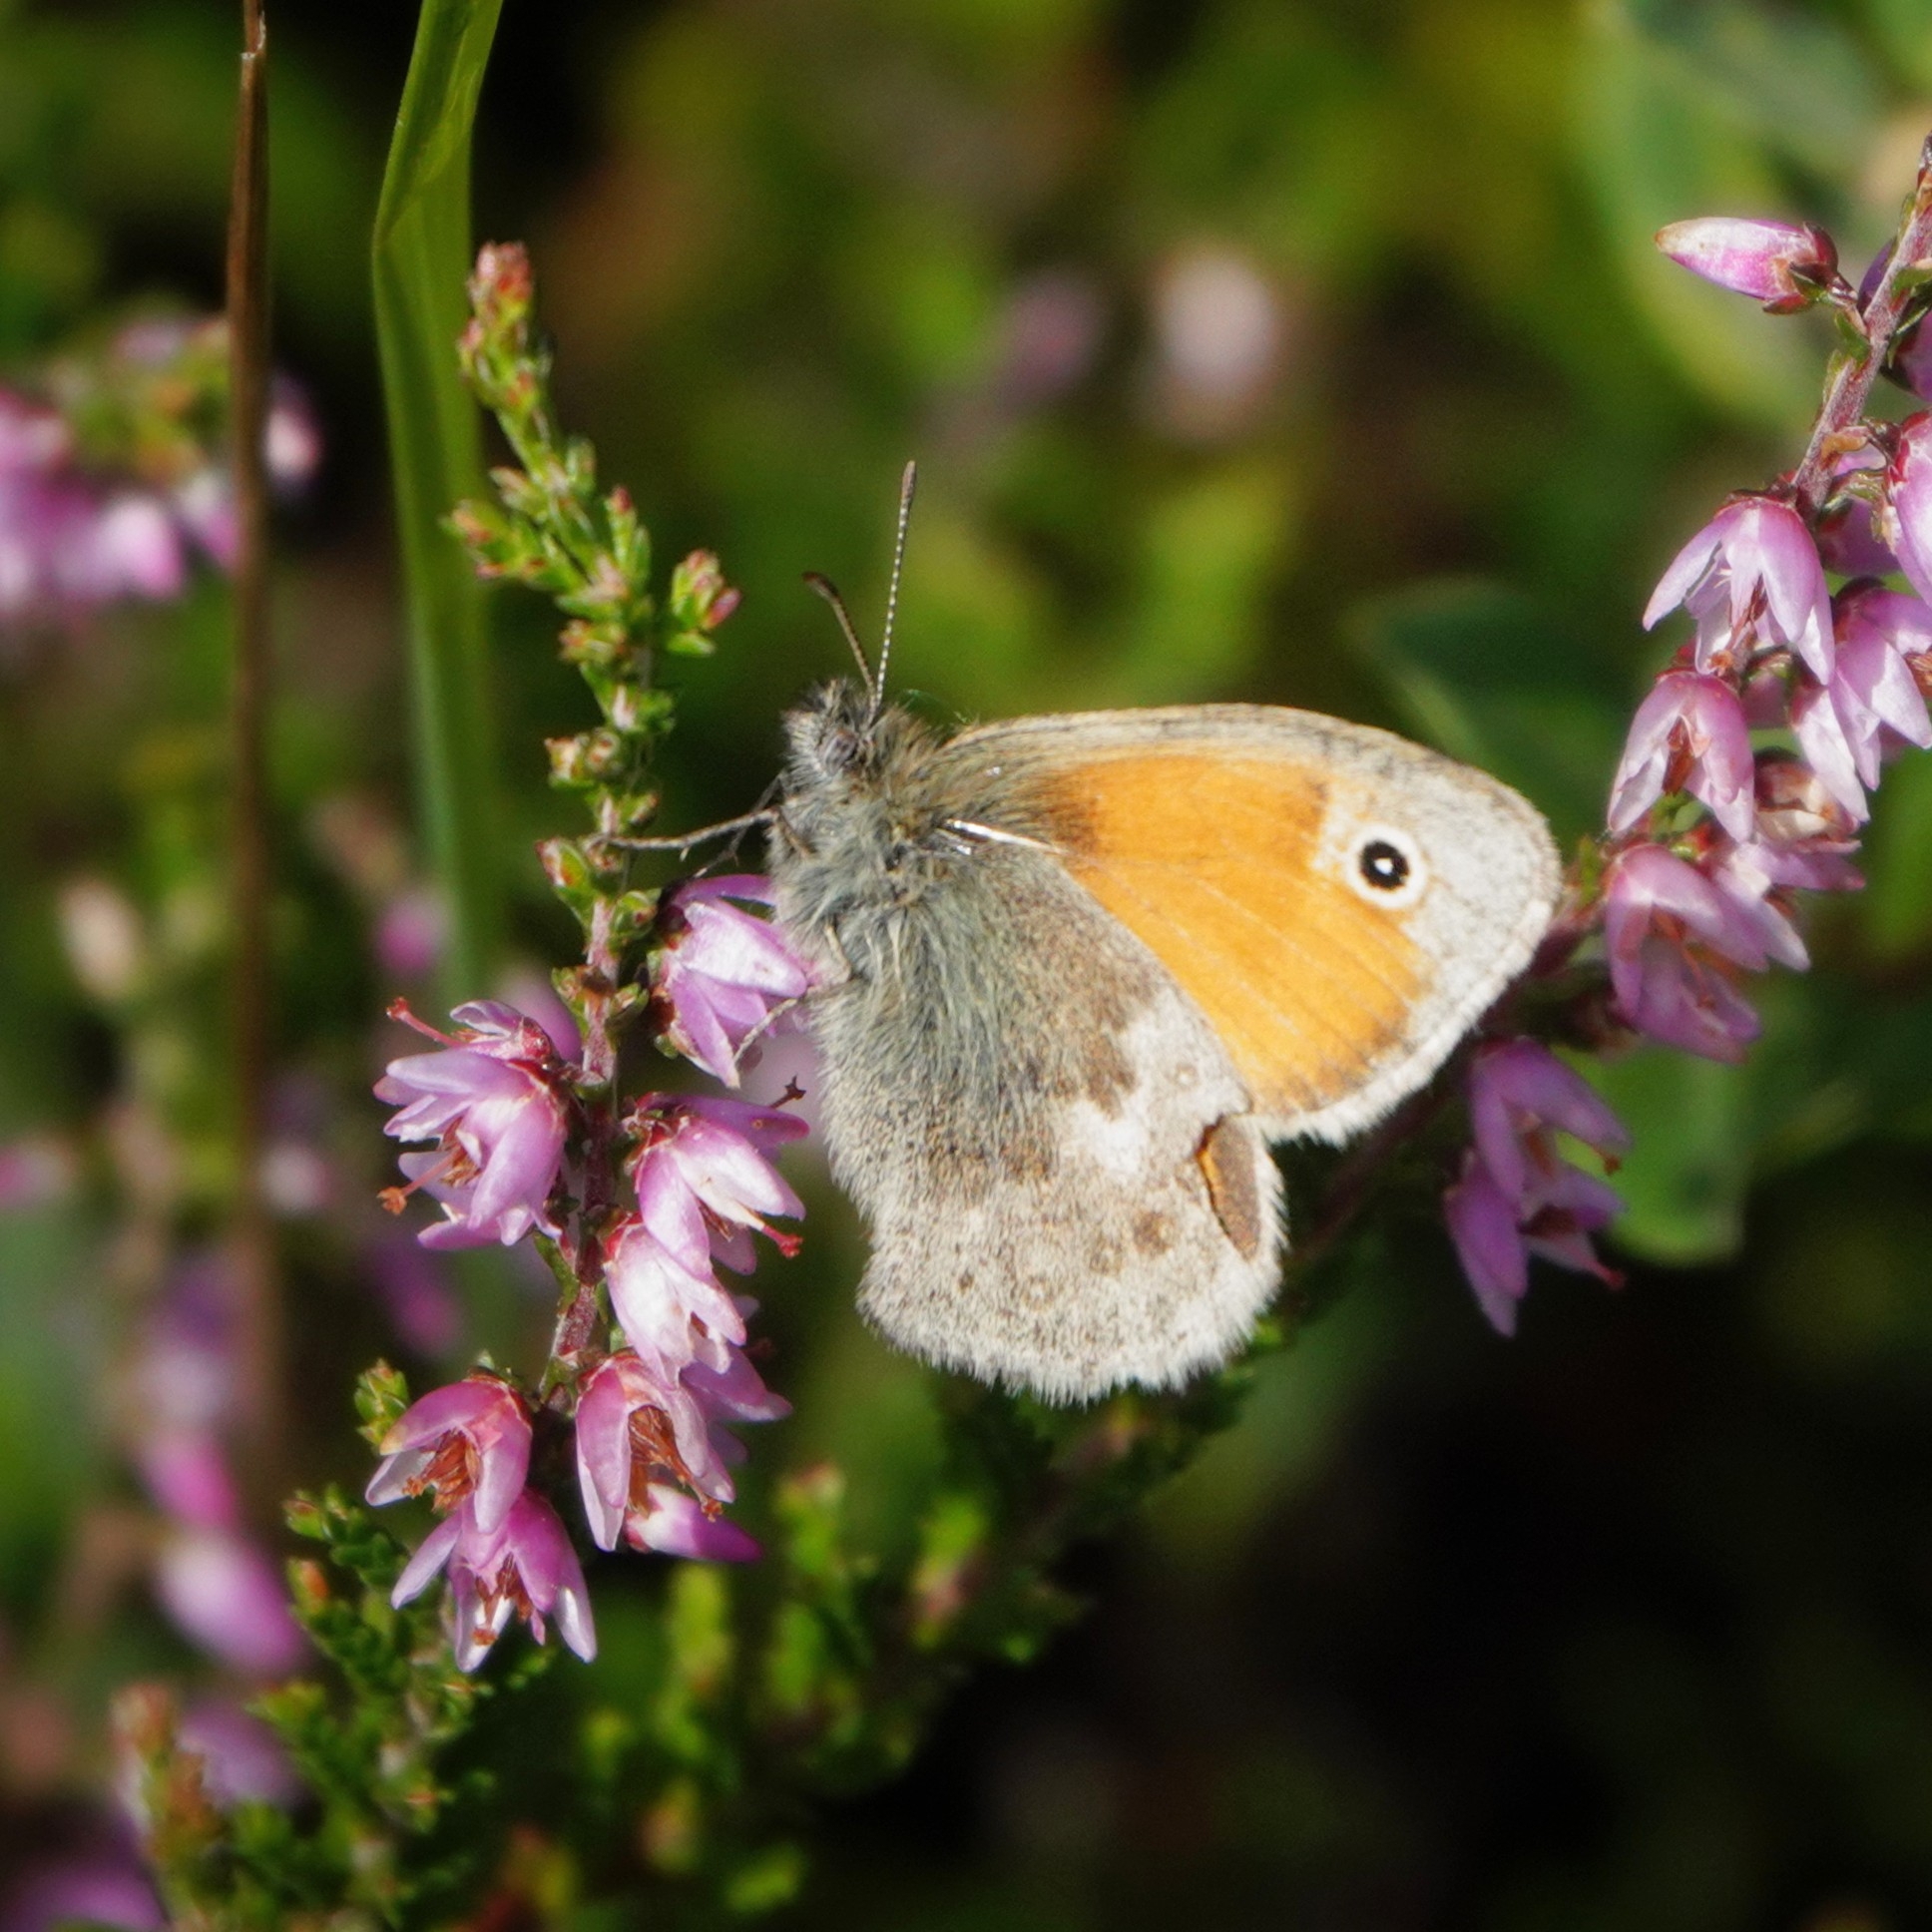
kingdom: Animalia
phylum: Arthropoda
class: Insecta
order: Lepidoptera
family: Nymphalidae
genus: Coenonympha
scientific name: Coenonympha pamphilus
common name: Small heath
